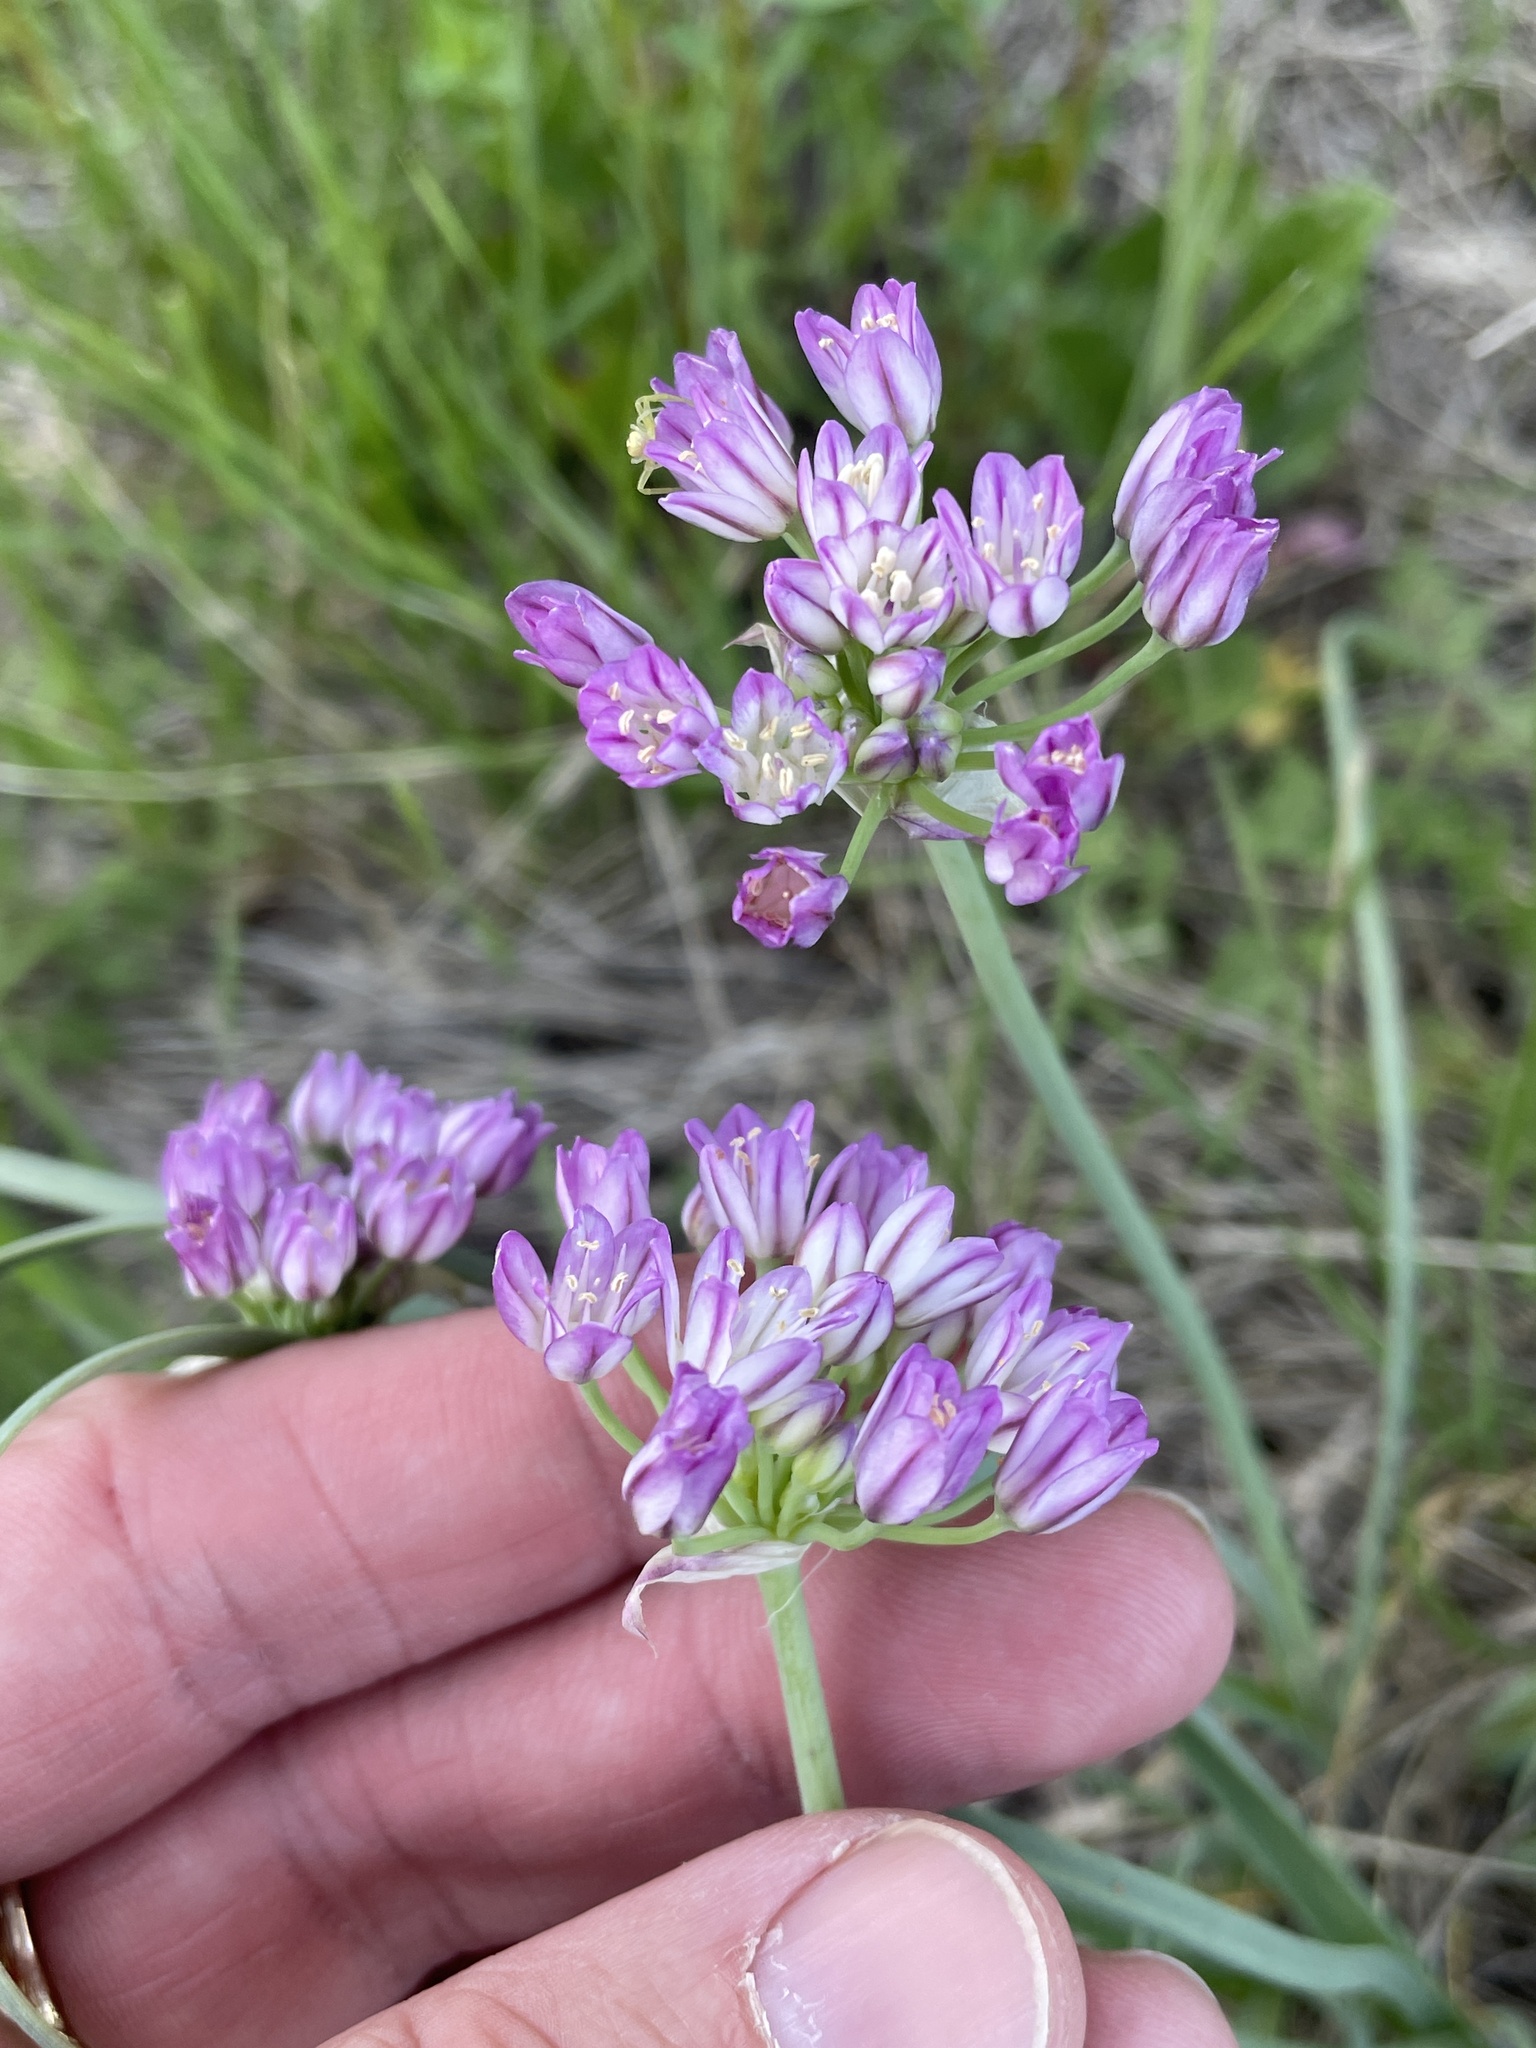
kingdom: Plantae
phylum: Tracheophyta
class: Liliopsida
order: Asparagales
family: Amaryllidaceae
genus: Allium
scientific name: Allium drummondii
